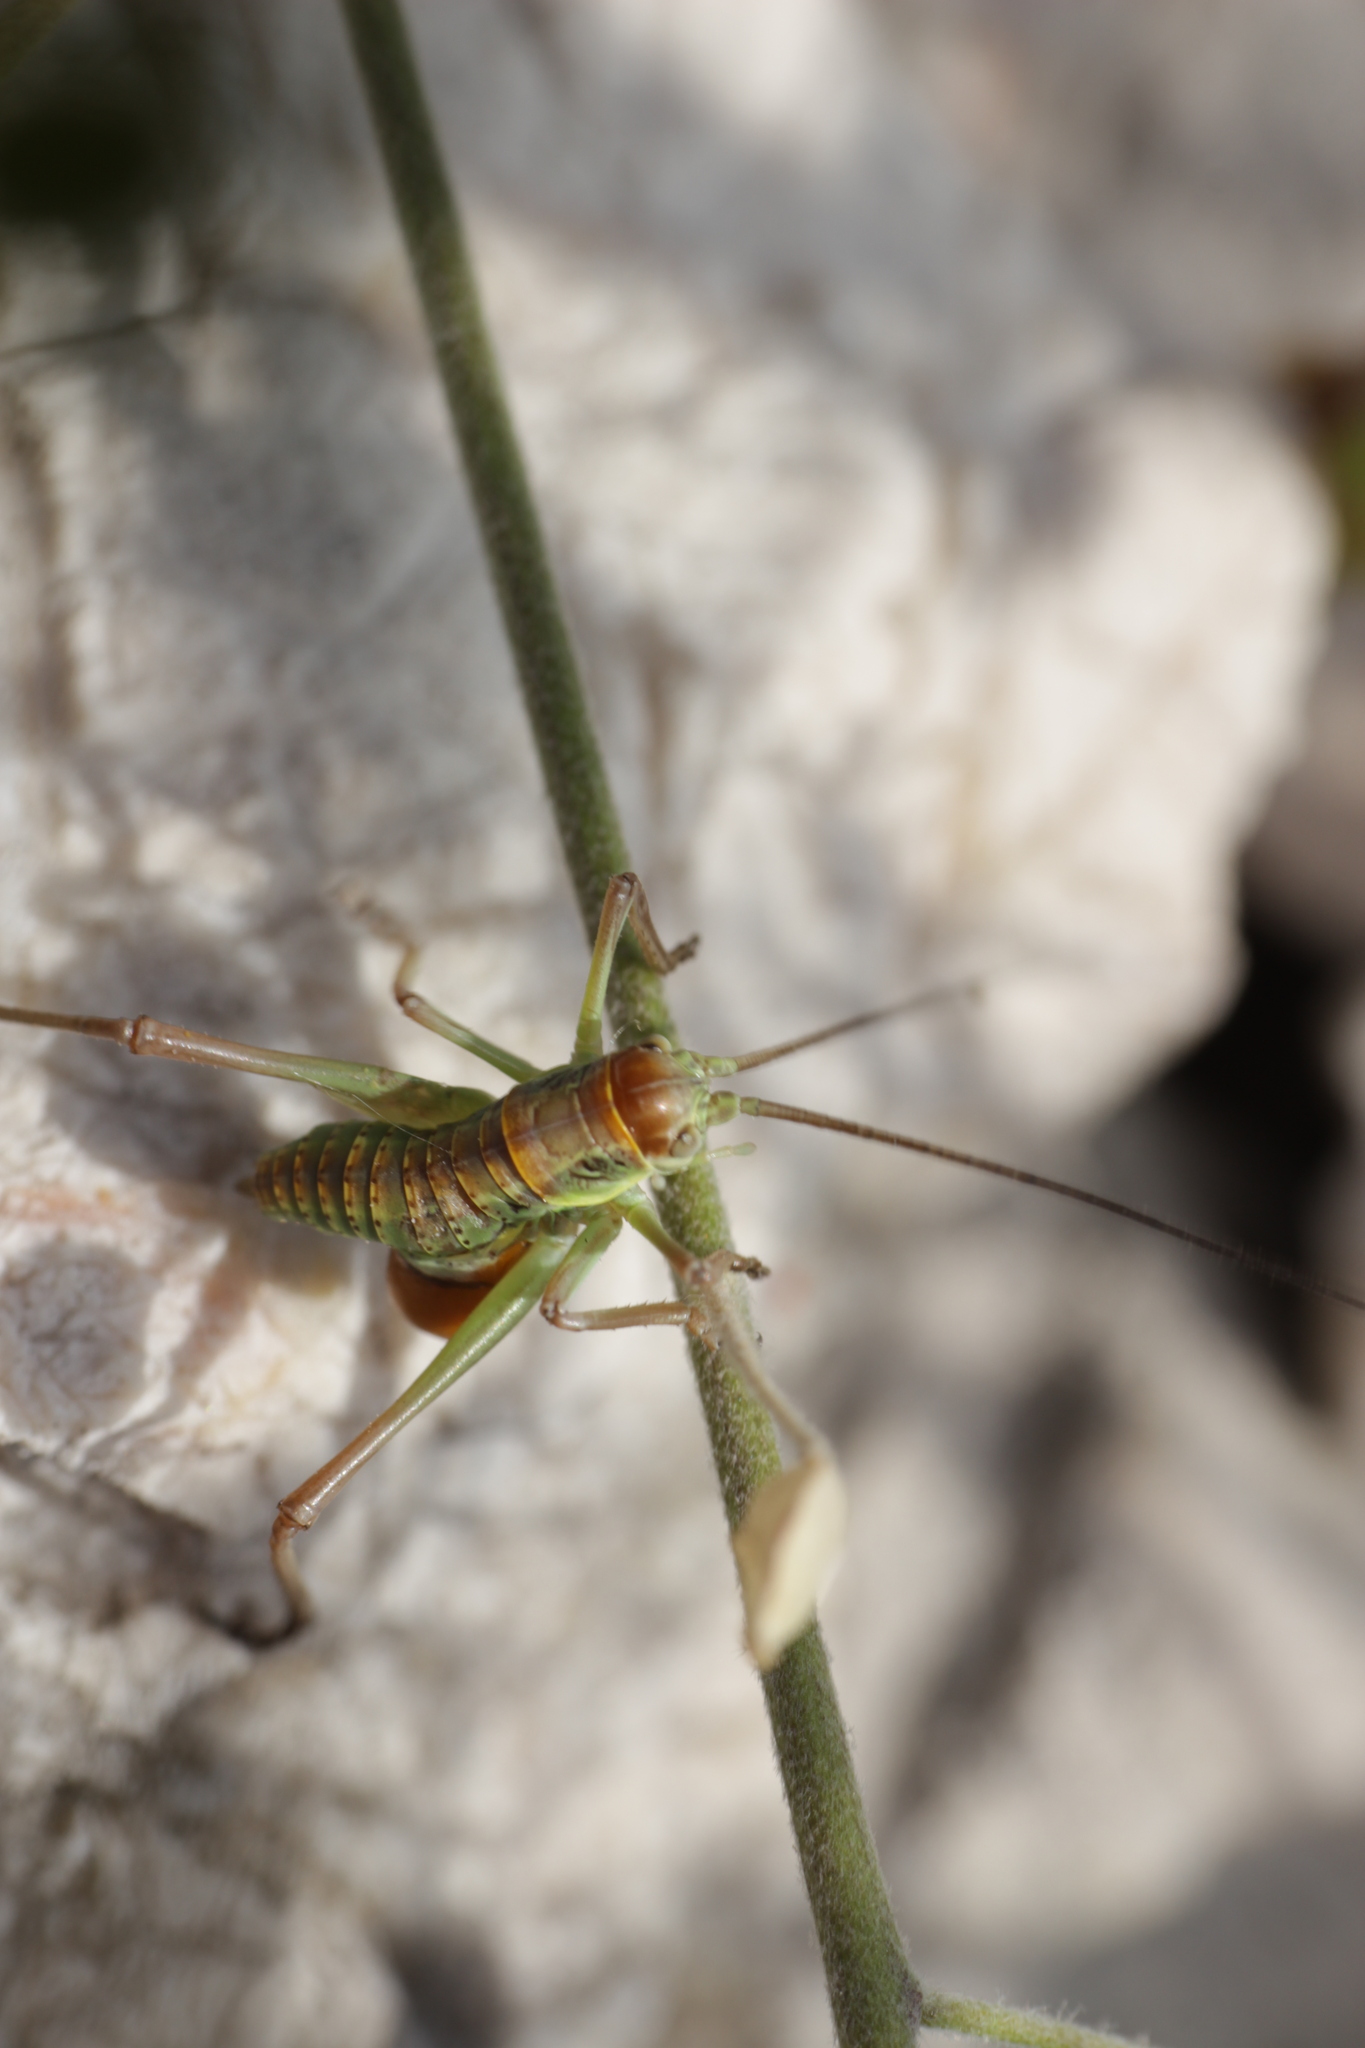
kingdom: Animalia
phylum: Arthropoda
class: Insecta
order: Orthoptera
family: Tettigoniidae
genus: Dinarippiger
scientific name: Dinarippiger discoidalis
